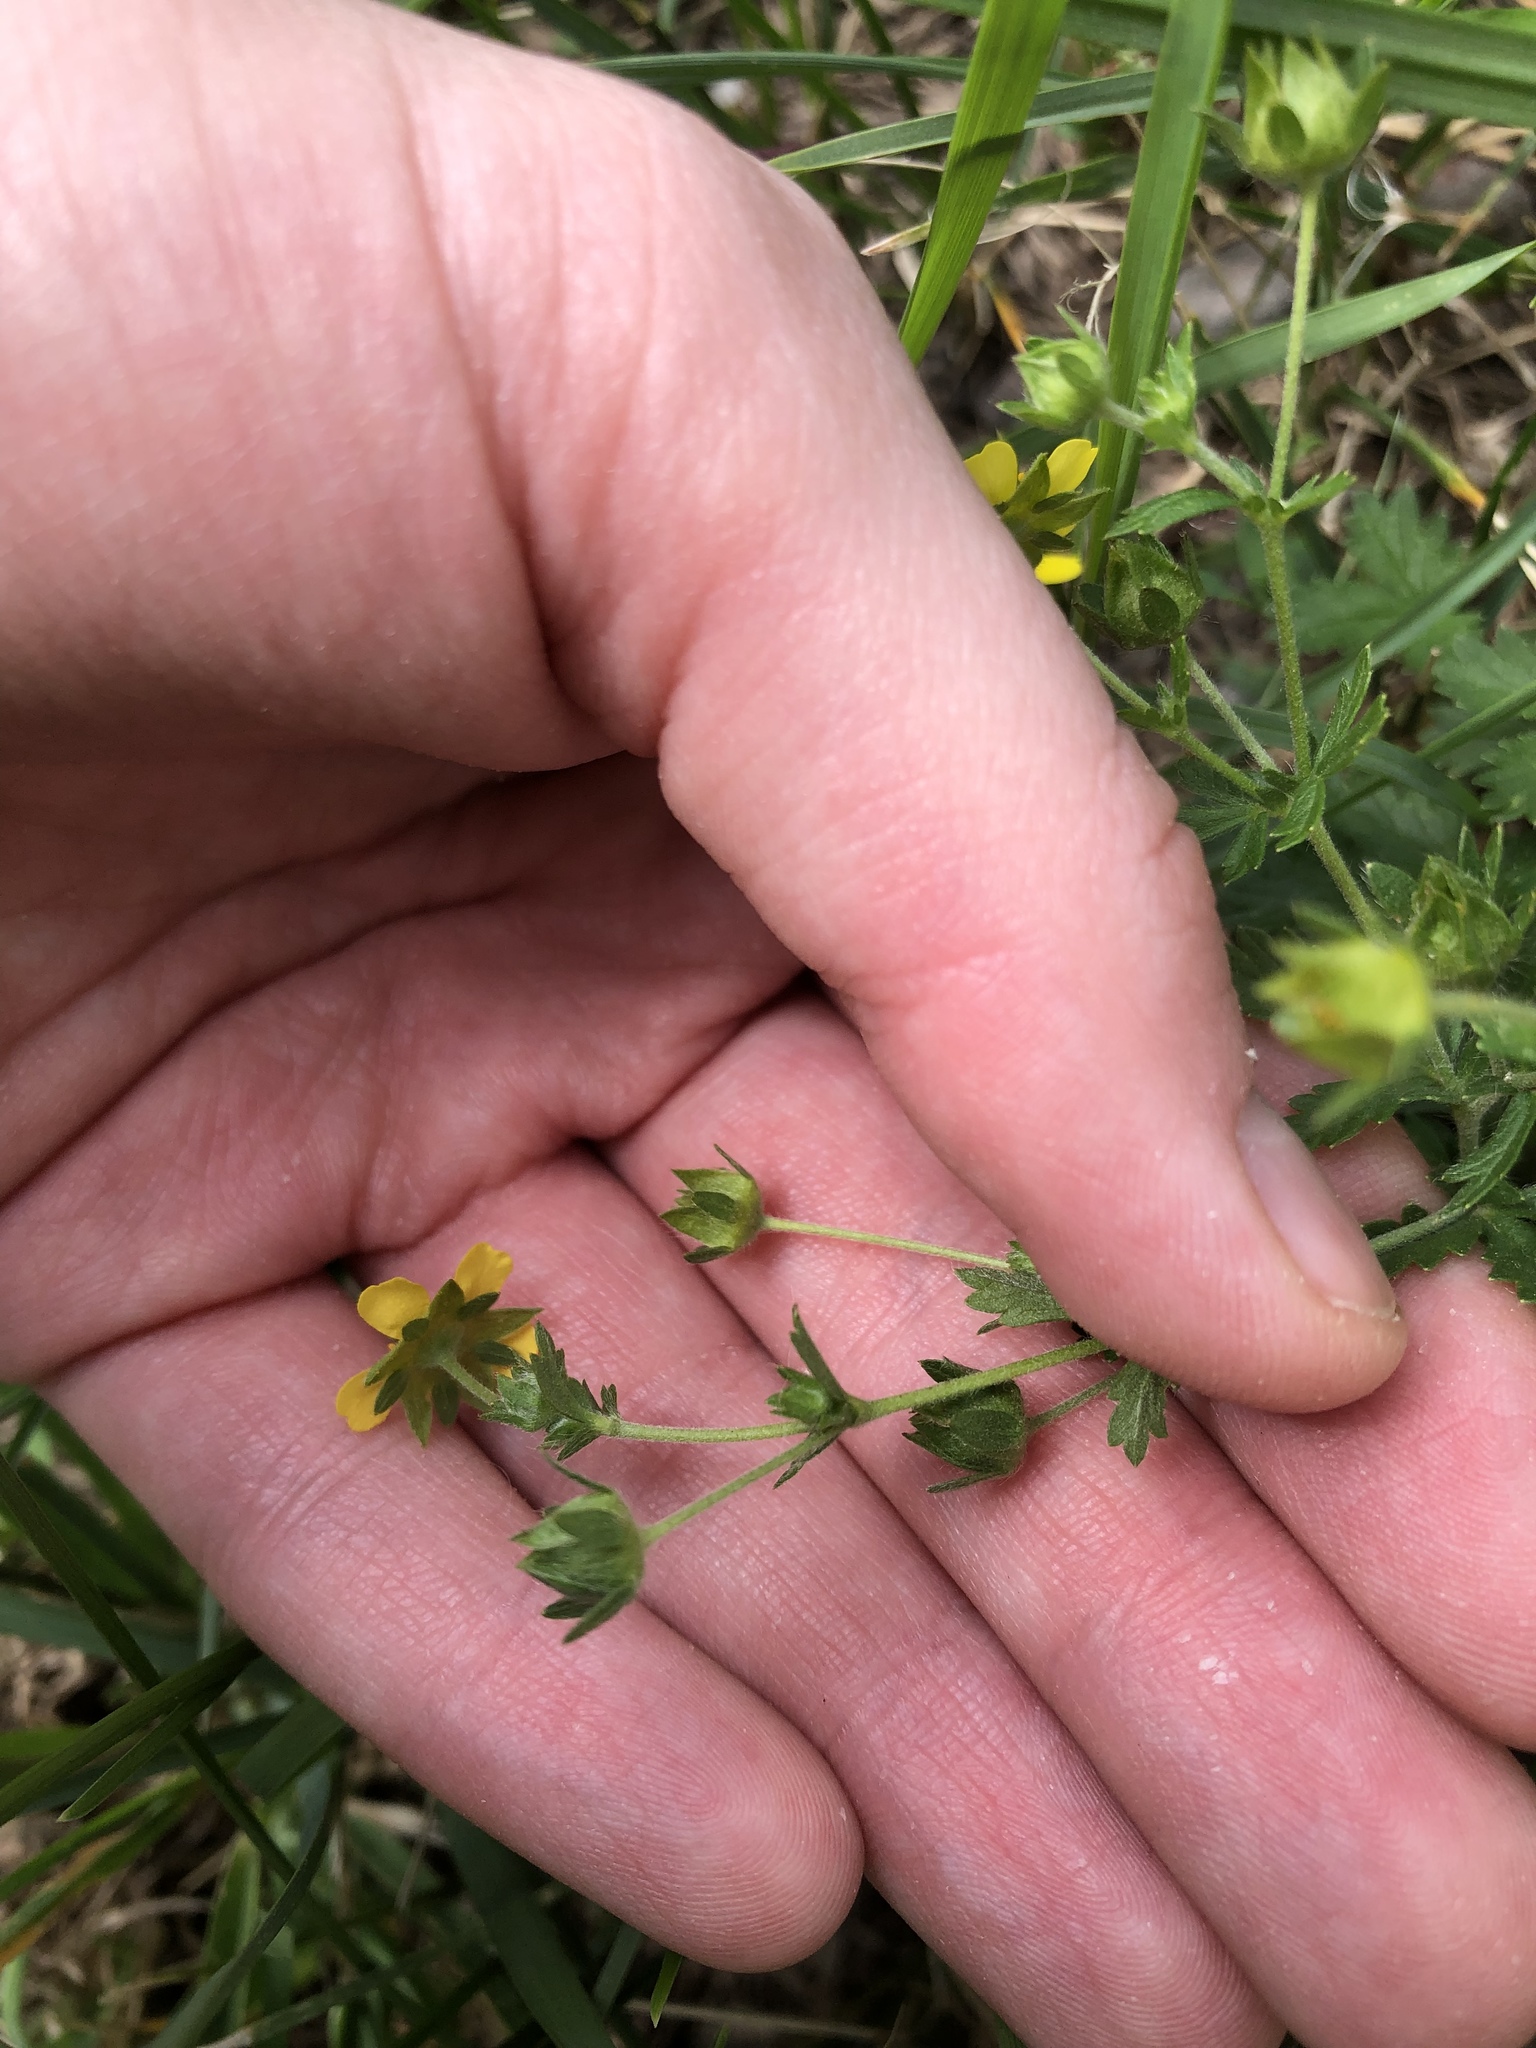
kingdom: Plantae
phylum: Tracheophyta
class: Magnoliopsida
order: Rosales
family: Rosaceae
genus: Potentilla
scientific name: Potentilla intermedia
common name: Downy cinquefoil
